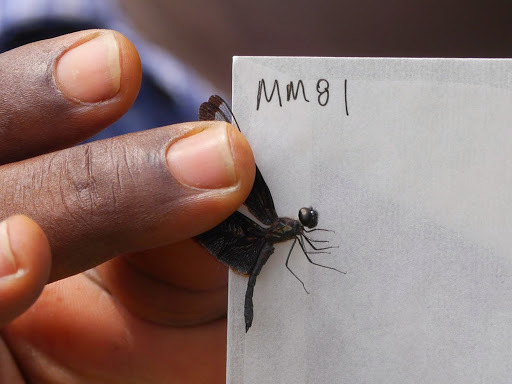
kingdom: Animalia
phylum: Arthropoda
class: Insecta
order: Odonata
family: Libellulidae
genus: Rhyothemis
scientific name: Rhyothemis splendens
